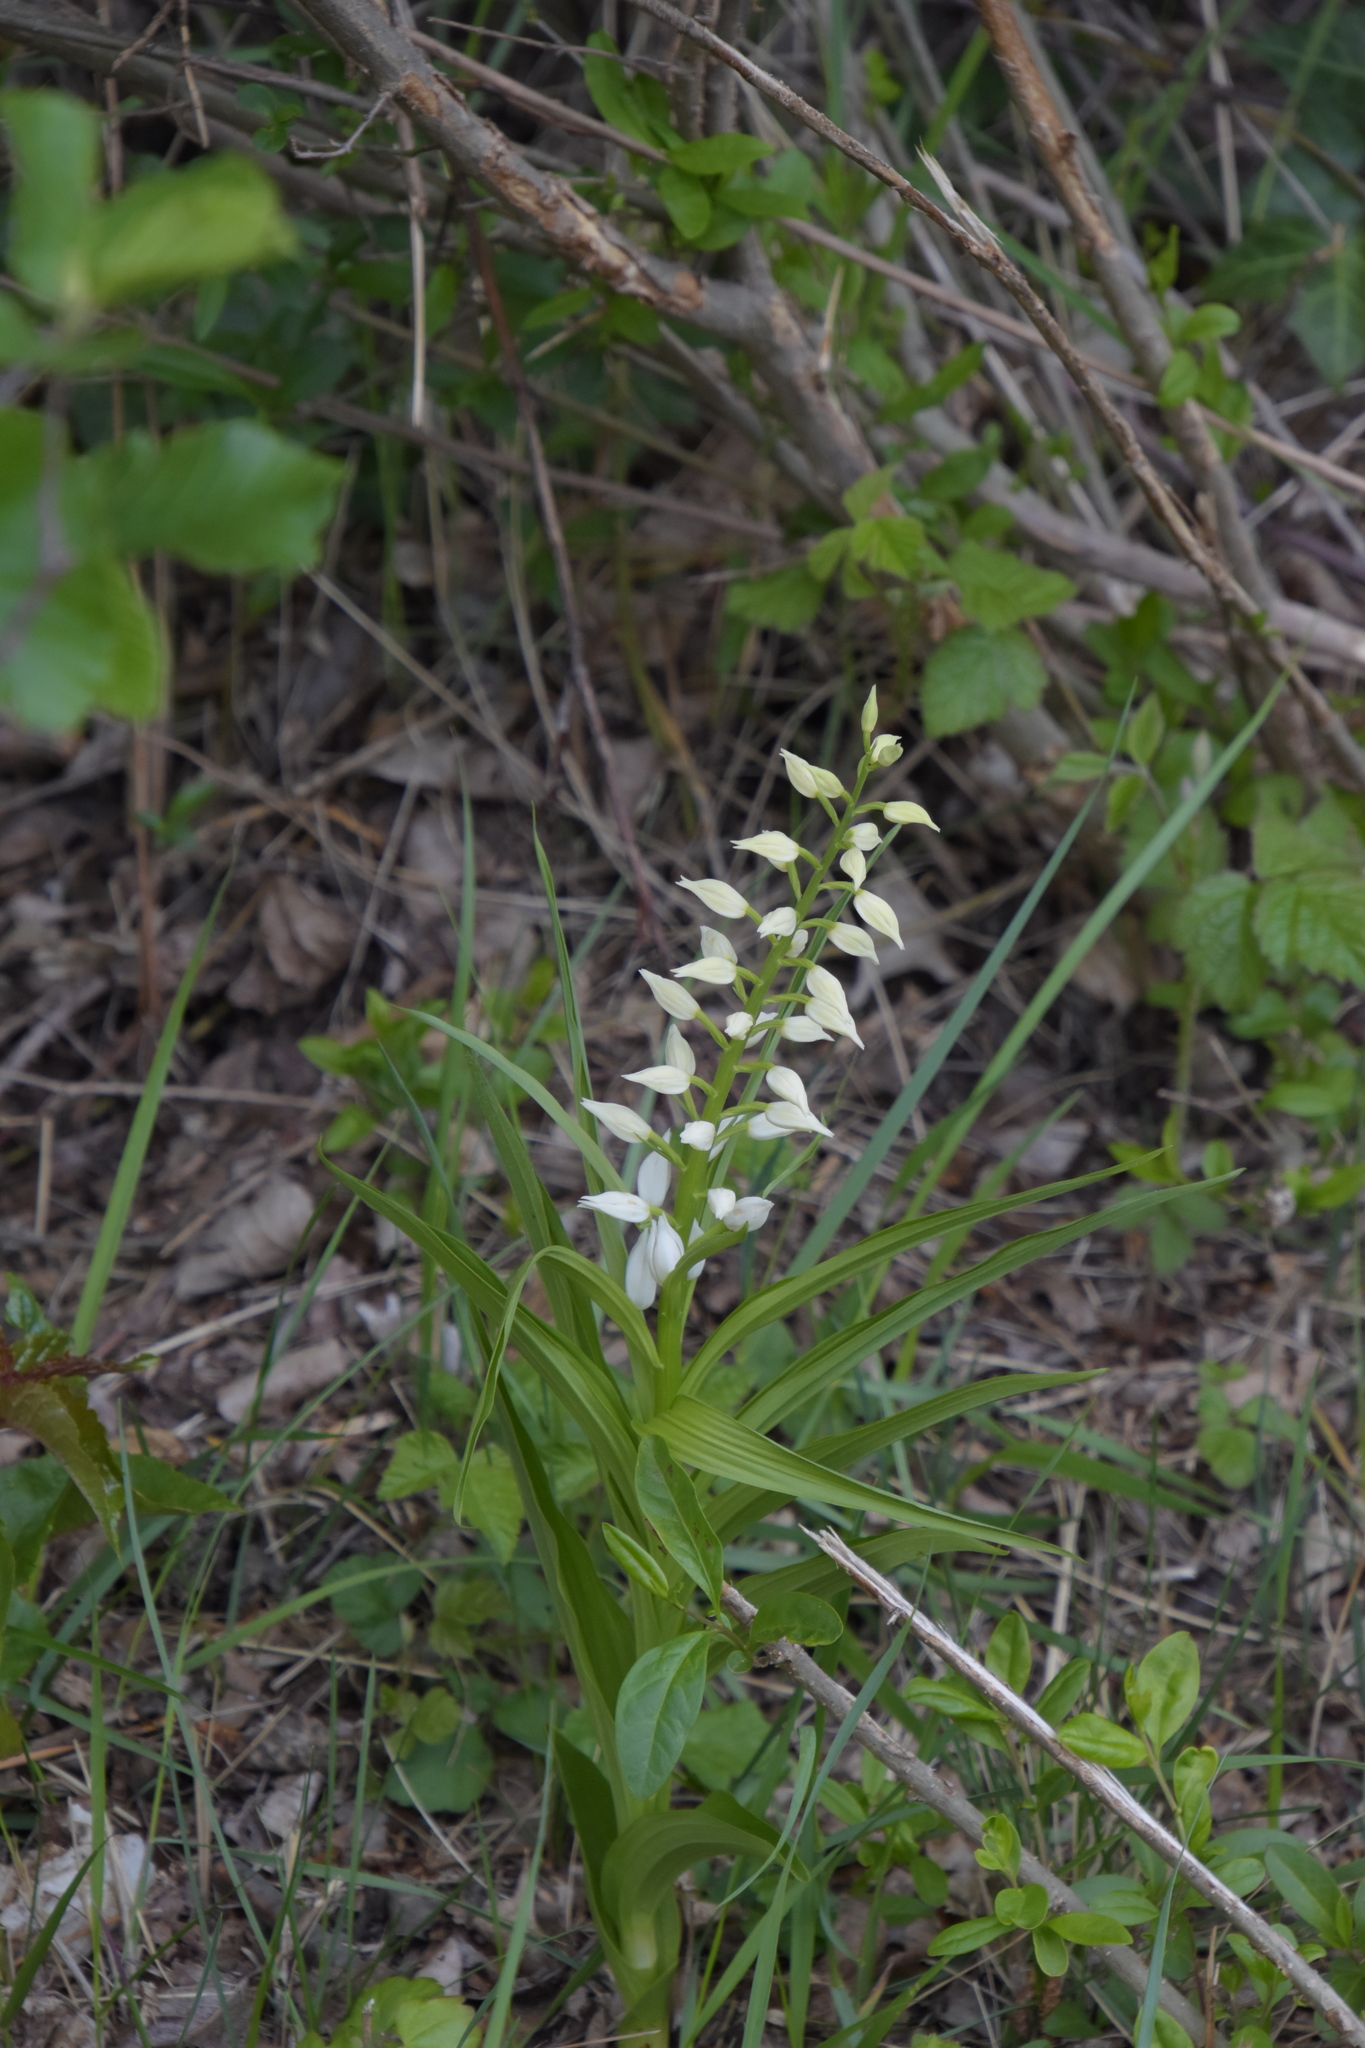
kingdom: Plantae
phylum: Tracheophyta
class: Liliopsida
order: Asparagales
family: Orchidaceae
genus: Cephalanthera
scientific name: Cephalanthera longifolia
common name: Narrow-leaved helleborine
